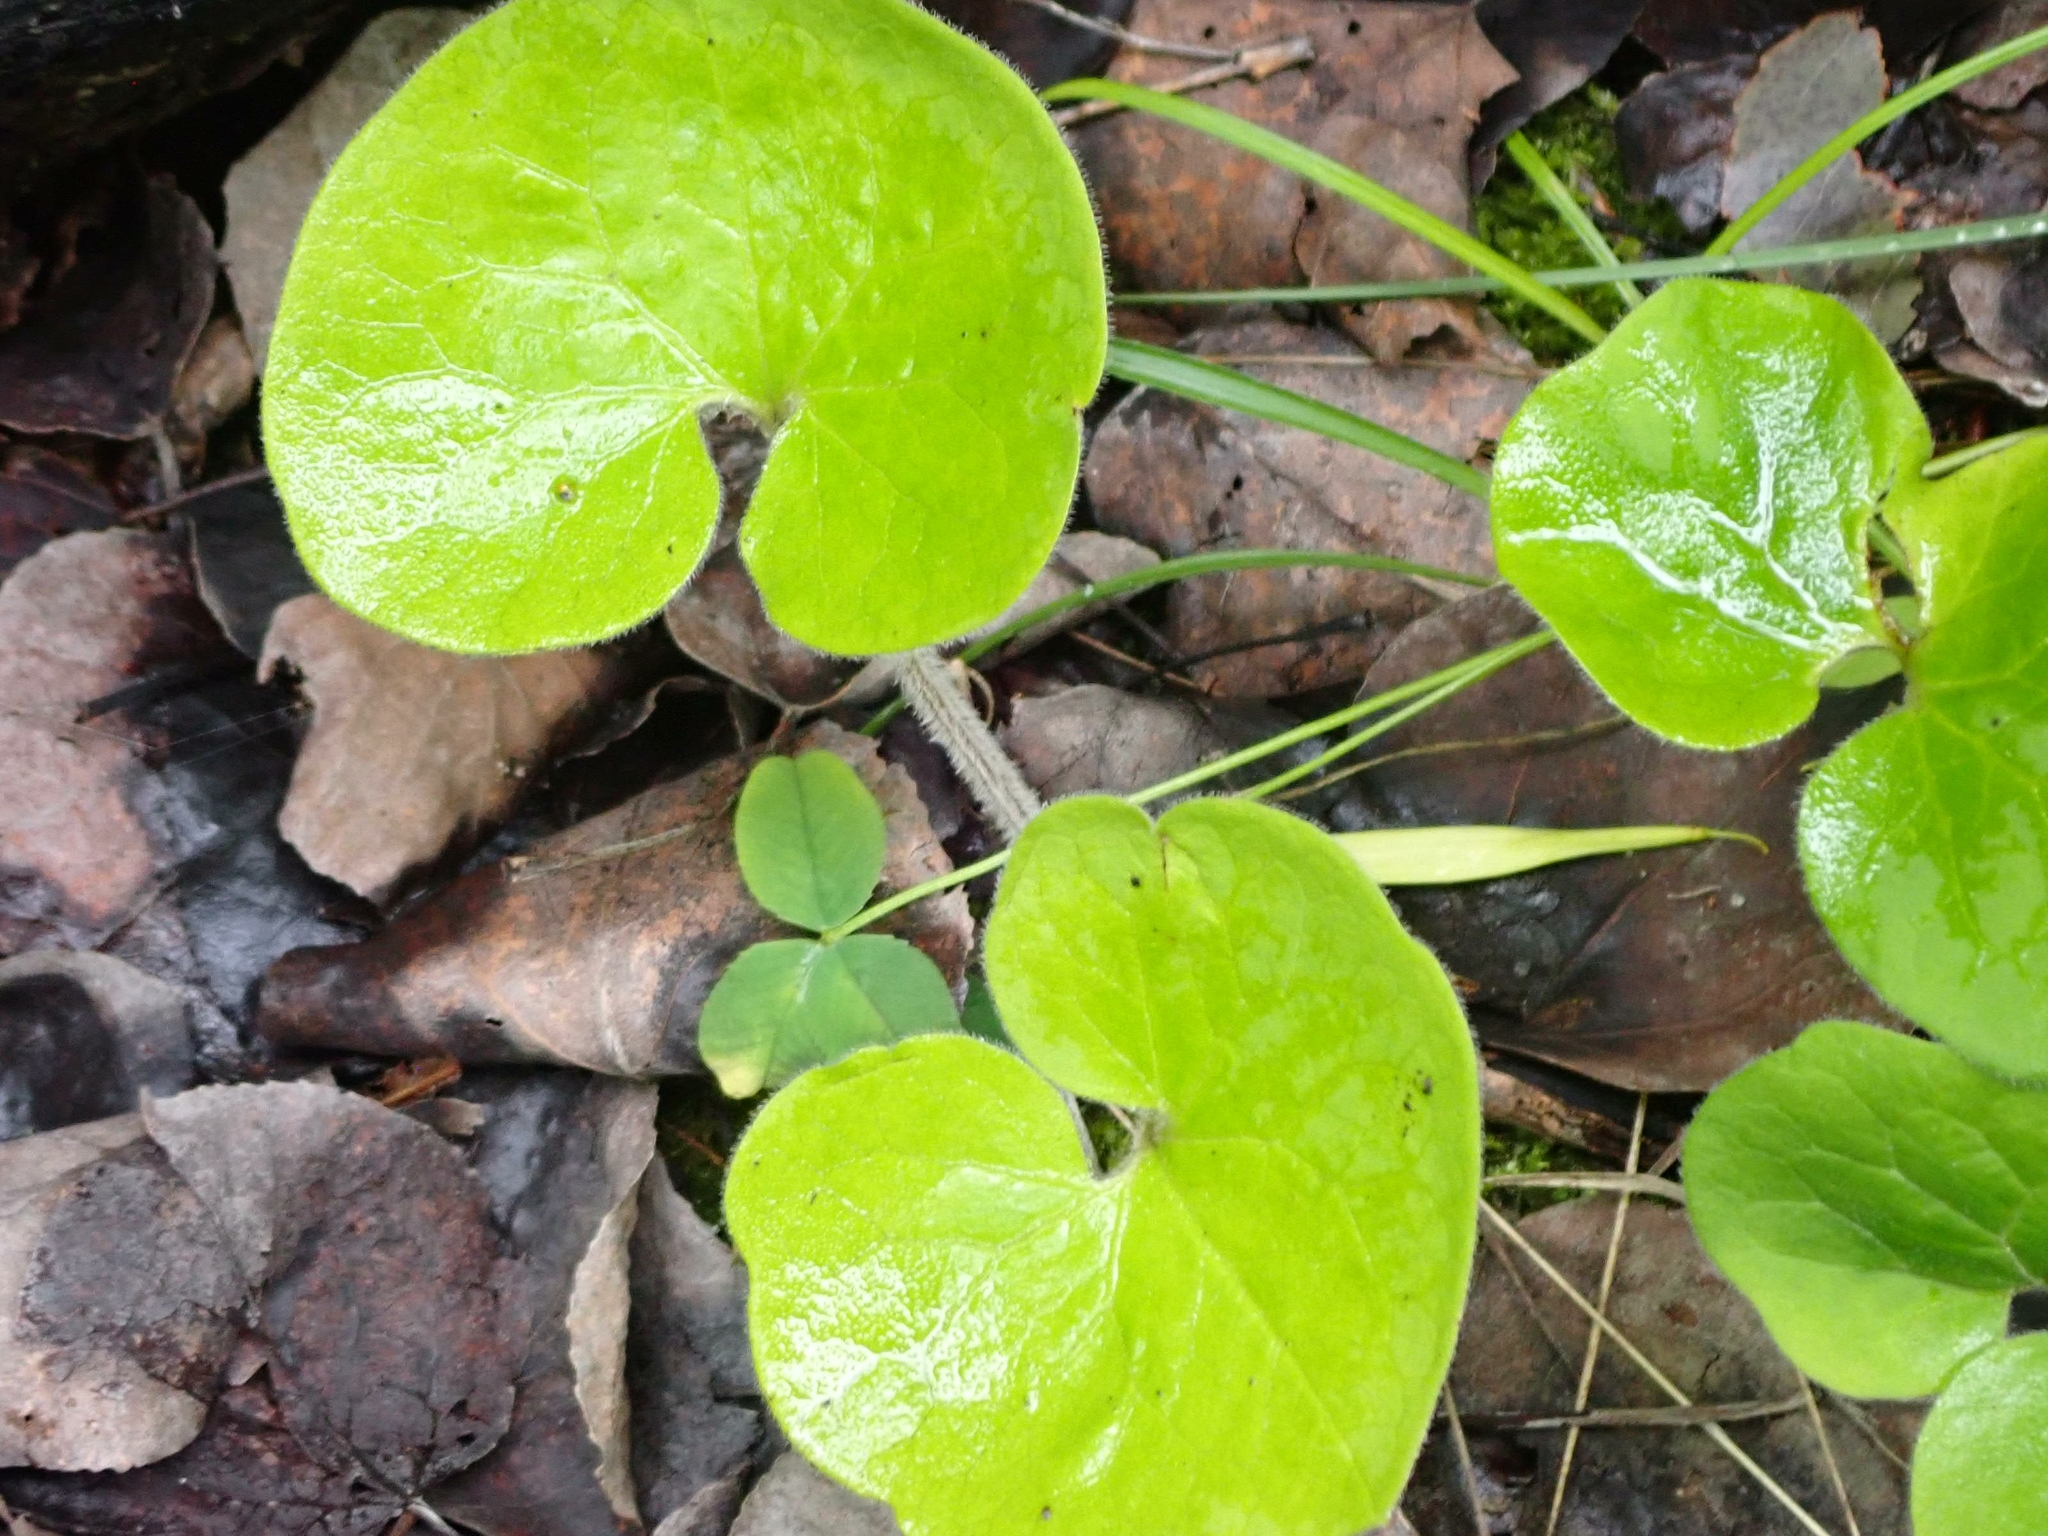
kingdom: Plantae
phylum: Tracheophyta
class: Magnoliopsida
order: Piperales
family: Aristolochiaceae
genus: Asarum
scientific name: Asarum canadense
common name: Wild ginger
